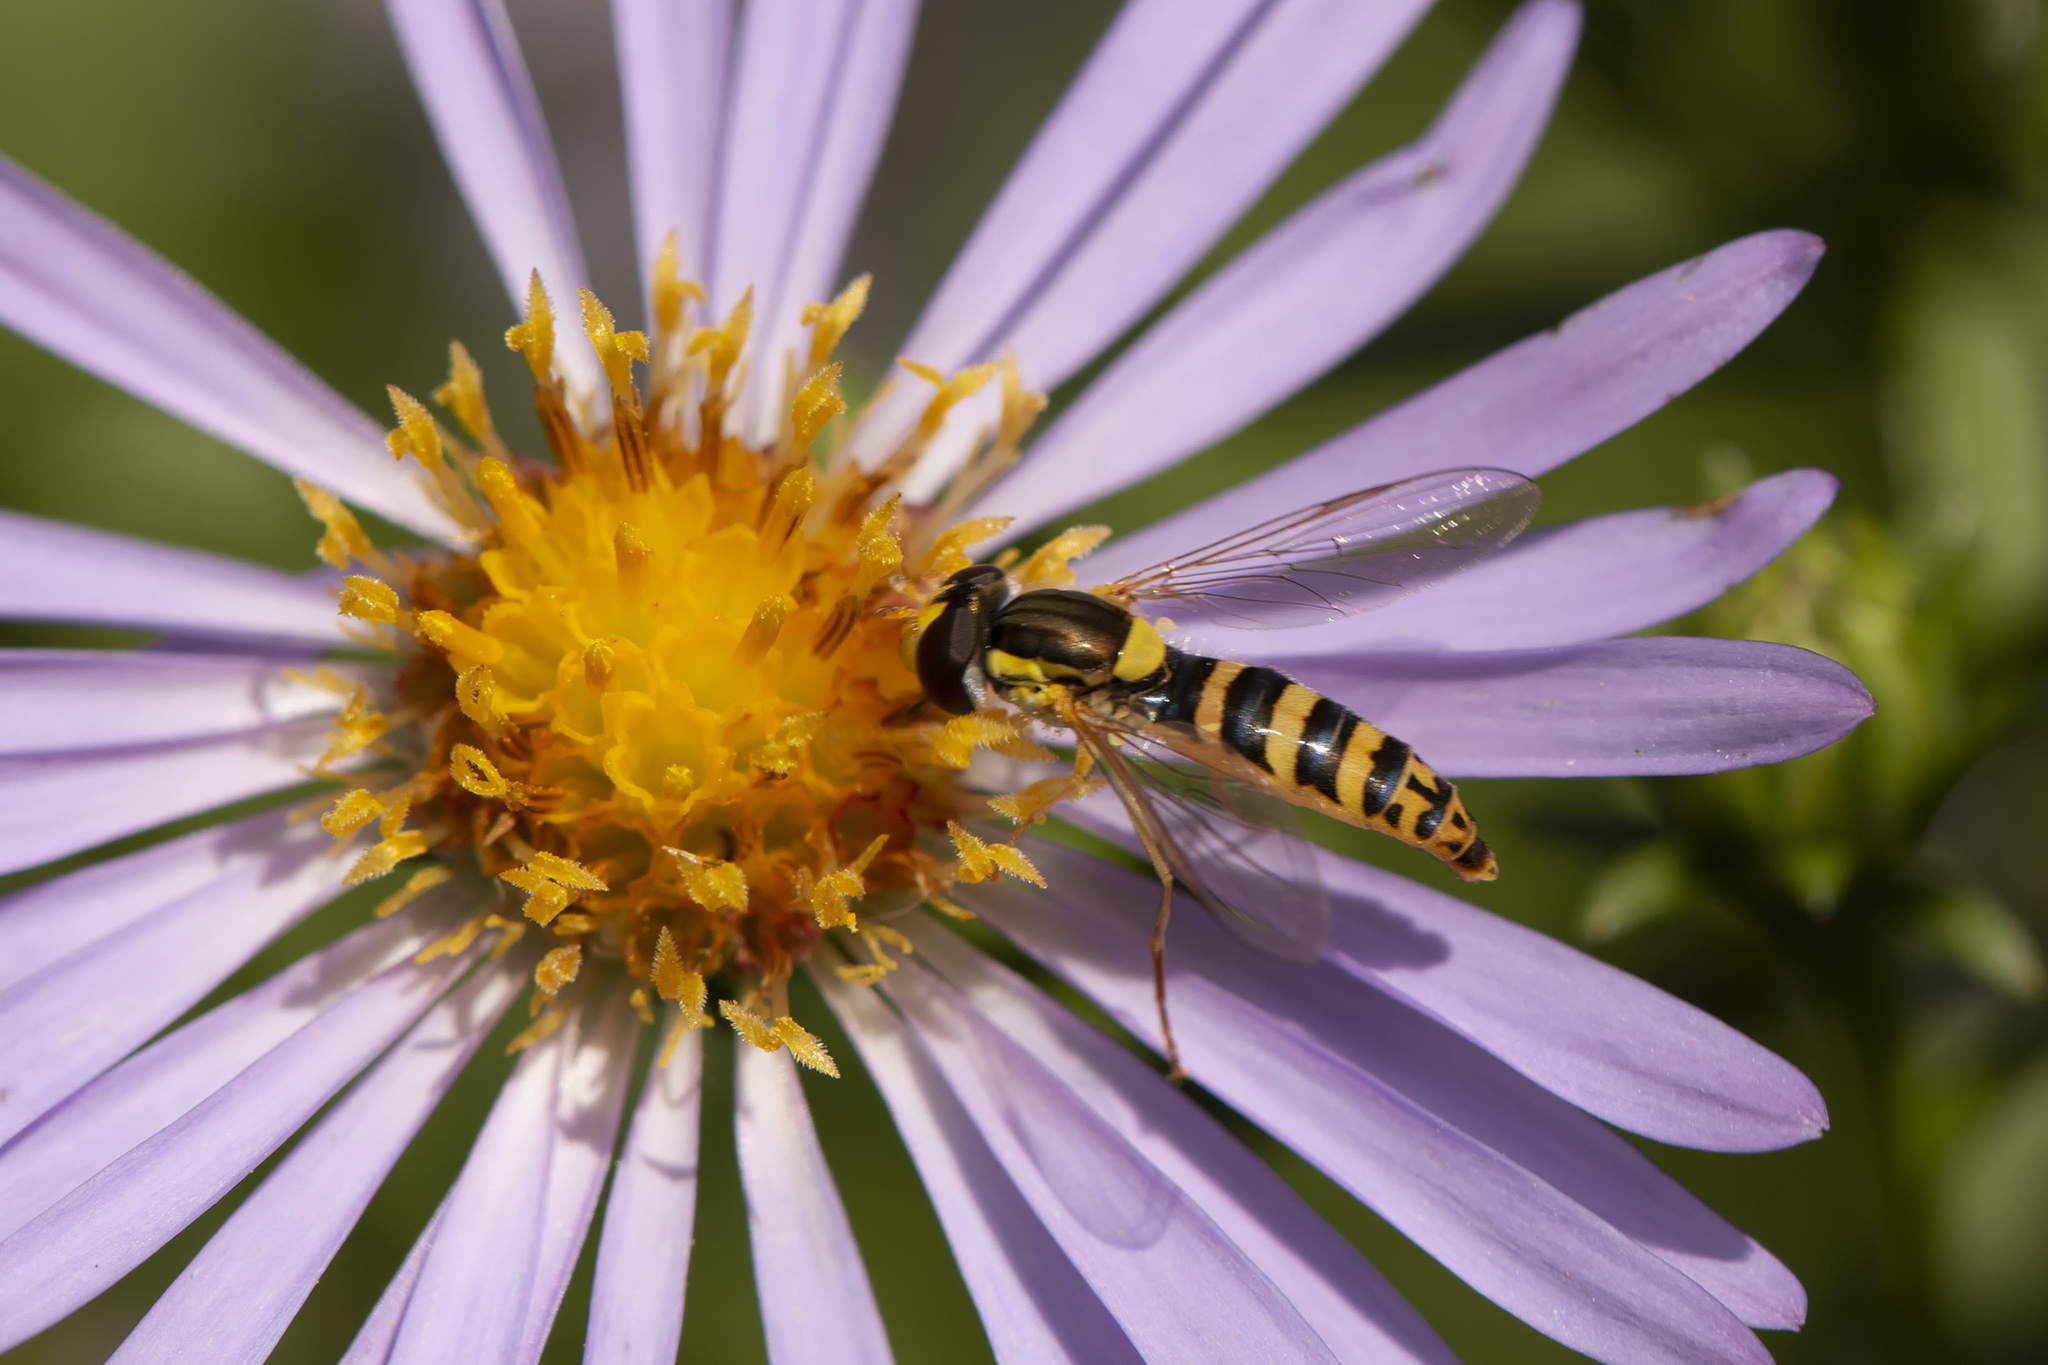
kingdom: Animalia
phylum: Arthropoda
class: Insecta
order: Diptera
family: Syrphidae
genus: Sphaerophoria
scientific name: Sphaerophoria
